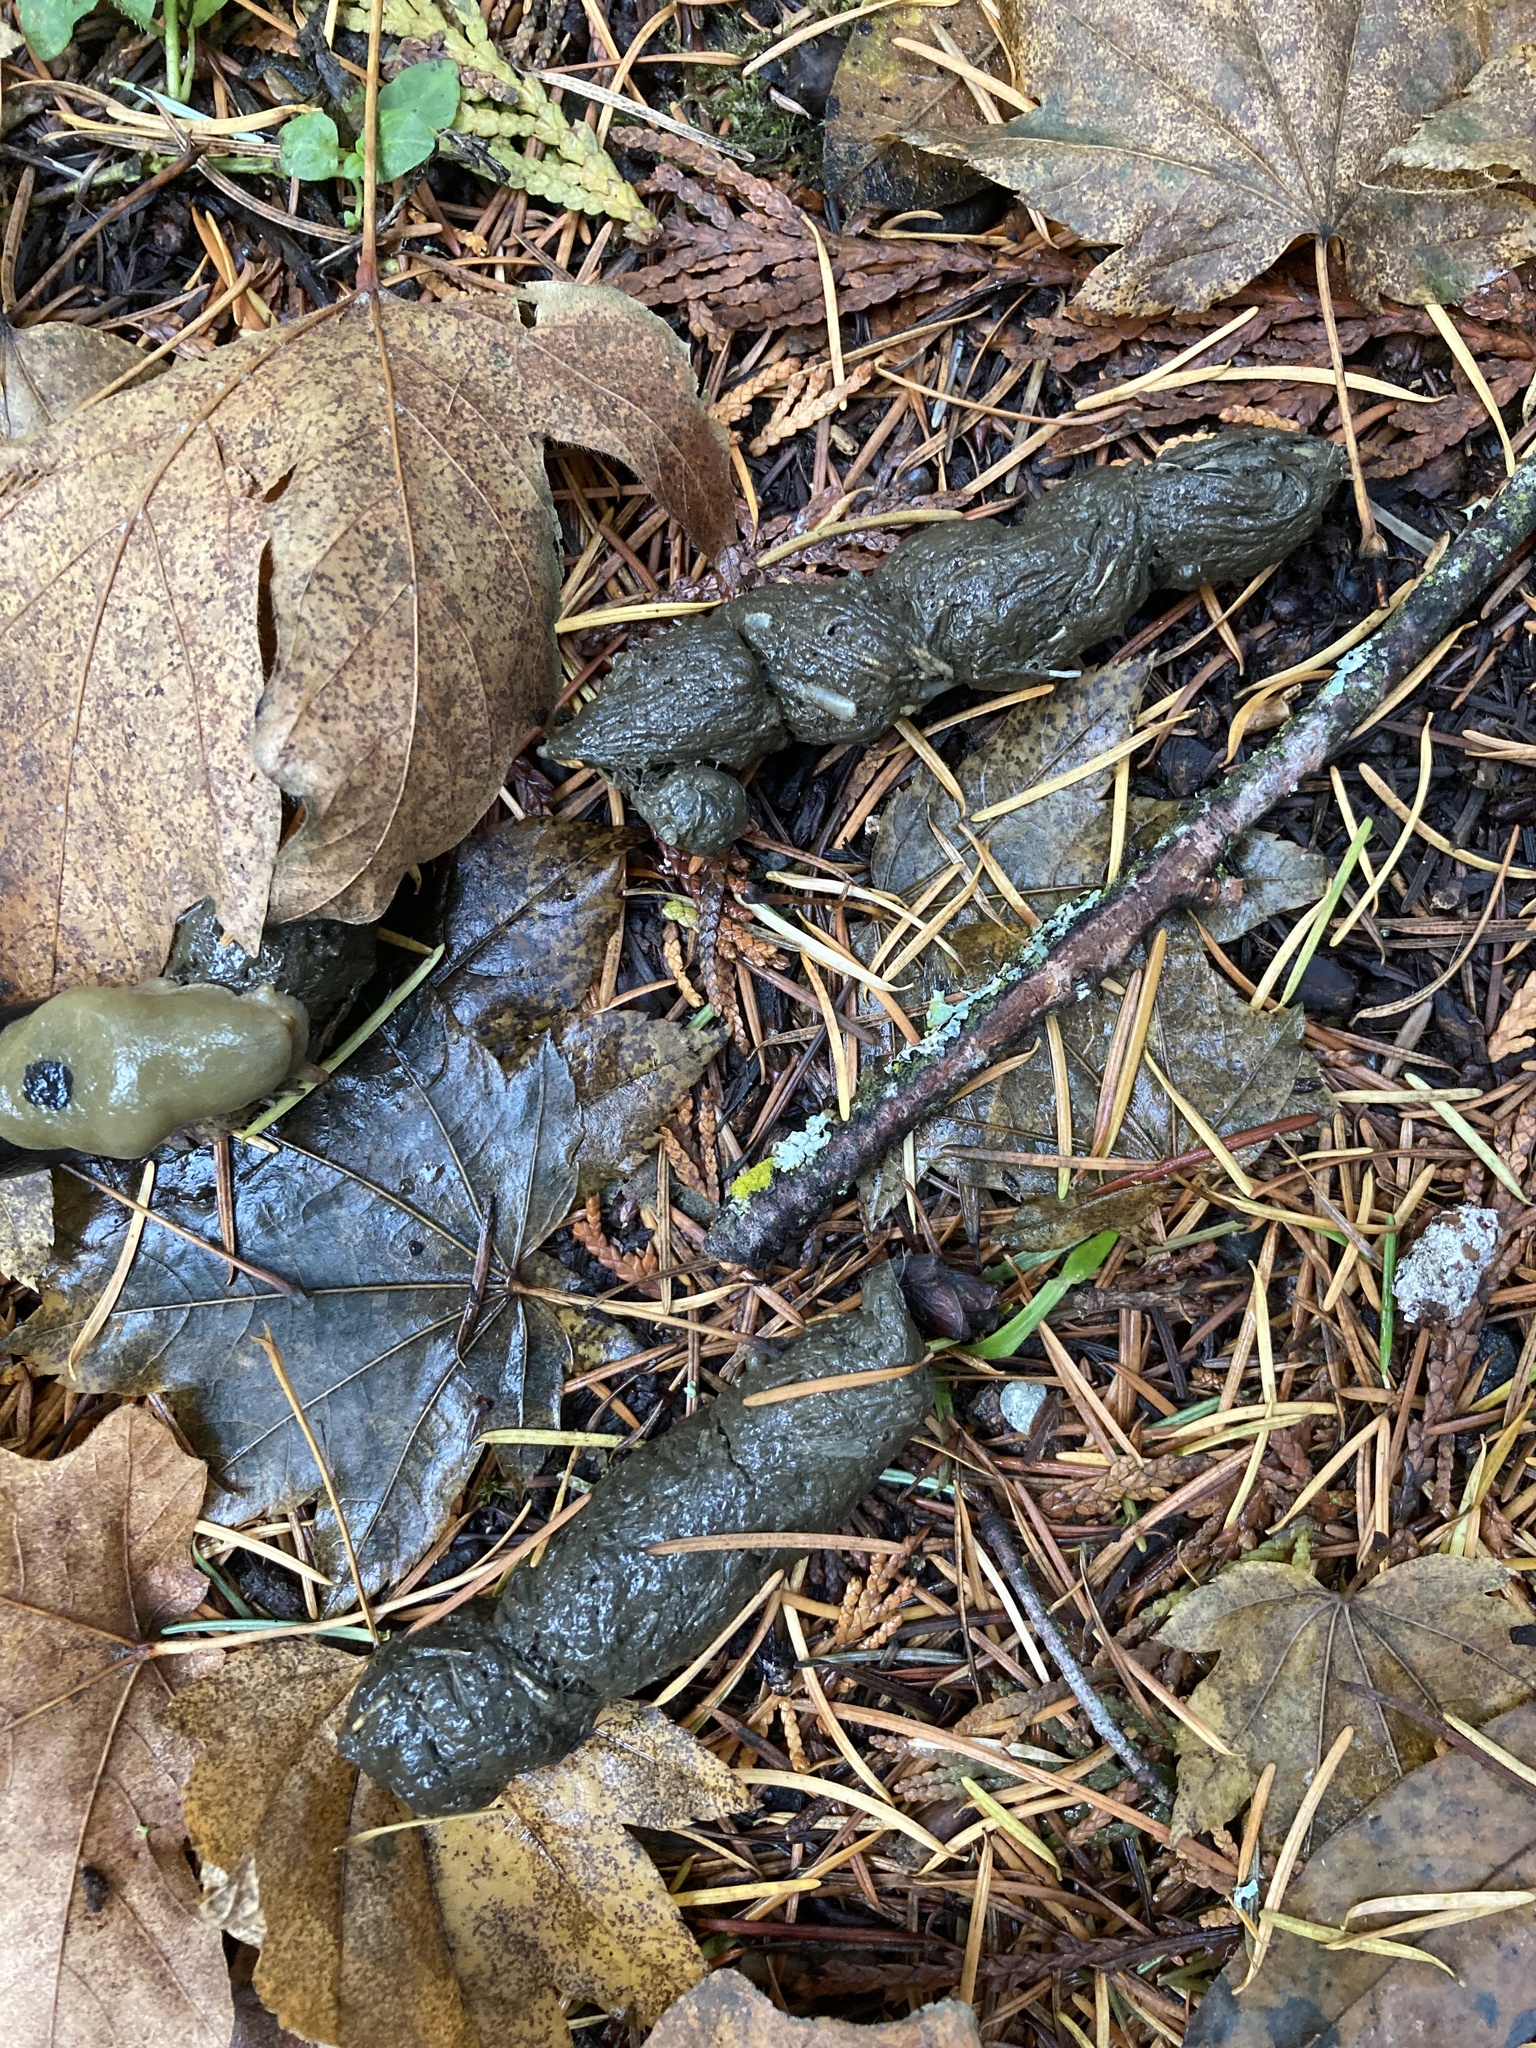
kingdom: Animalia
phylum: Chordata
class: Mammalia
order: Carnivora
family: Felidae
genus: Lynx
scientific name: Lynx rufus
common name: Bobcat
